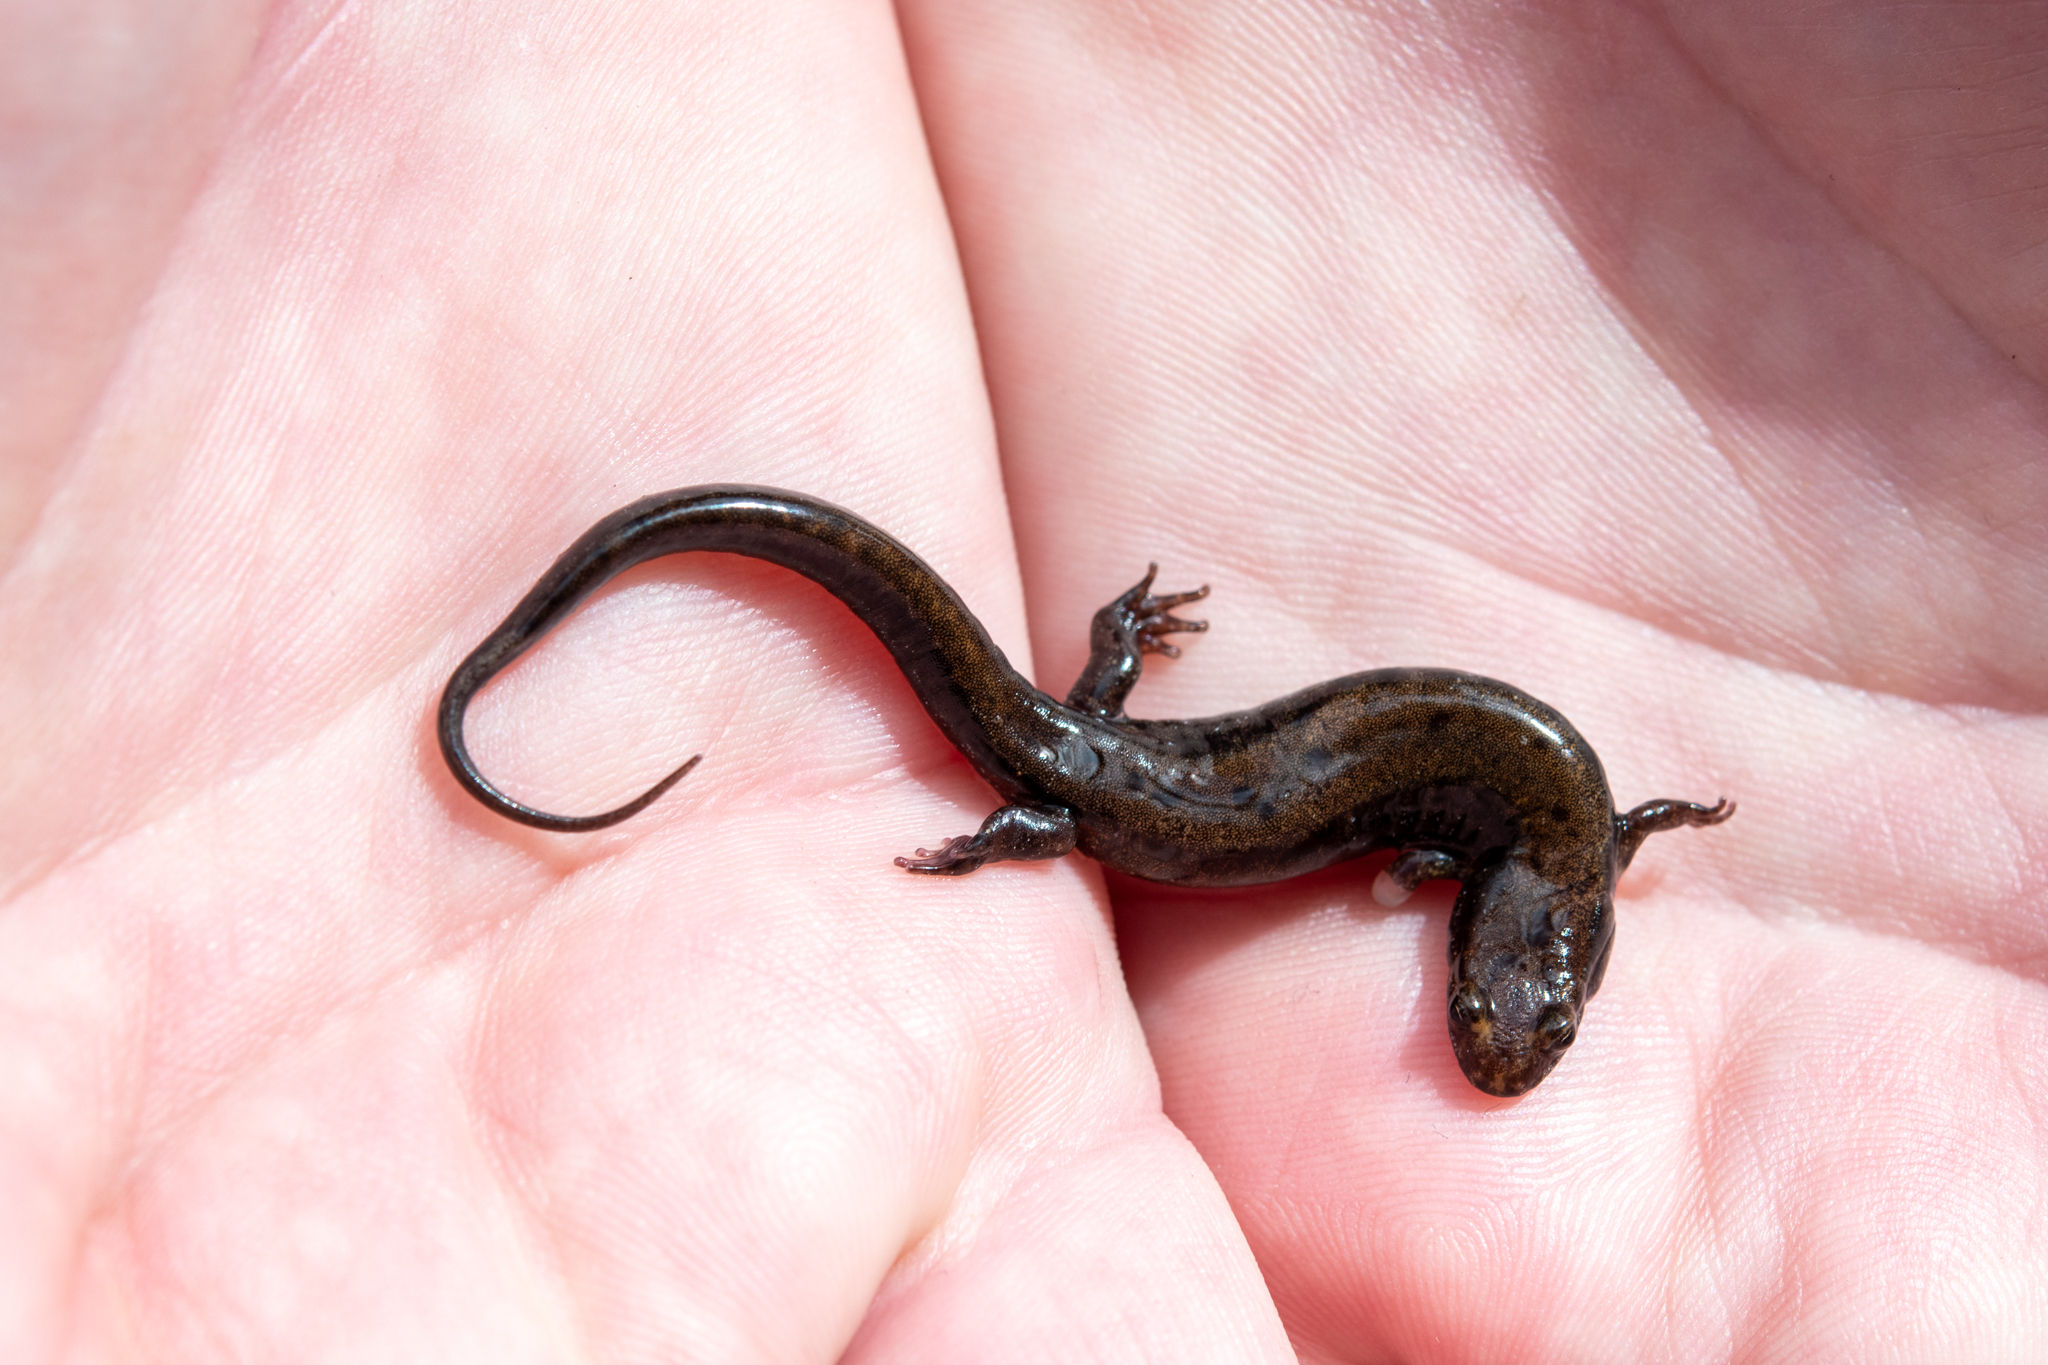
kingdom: Animalia
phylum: Chordata
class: Amphibia
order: Caudata
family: Plethodontidae
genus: Desmognathus
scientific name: Desmognathus ochrophaeus
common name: Allegheny mountain dusky salamander
